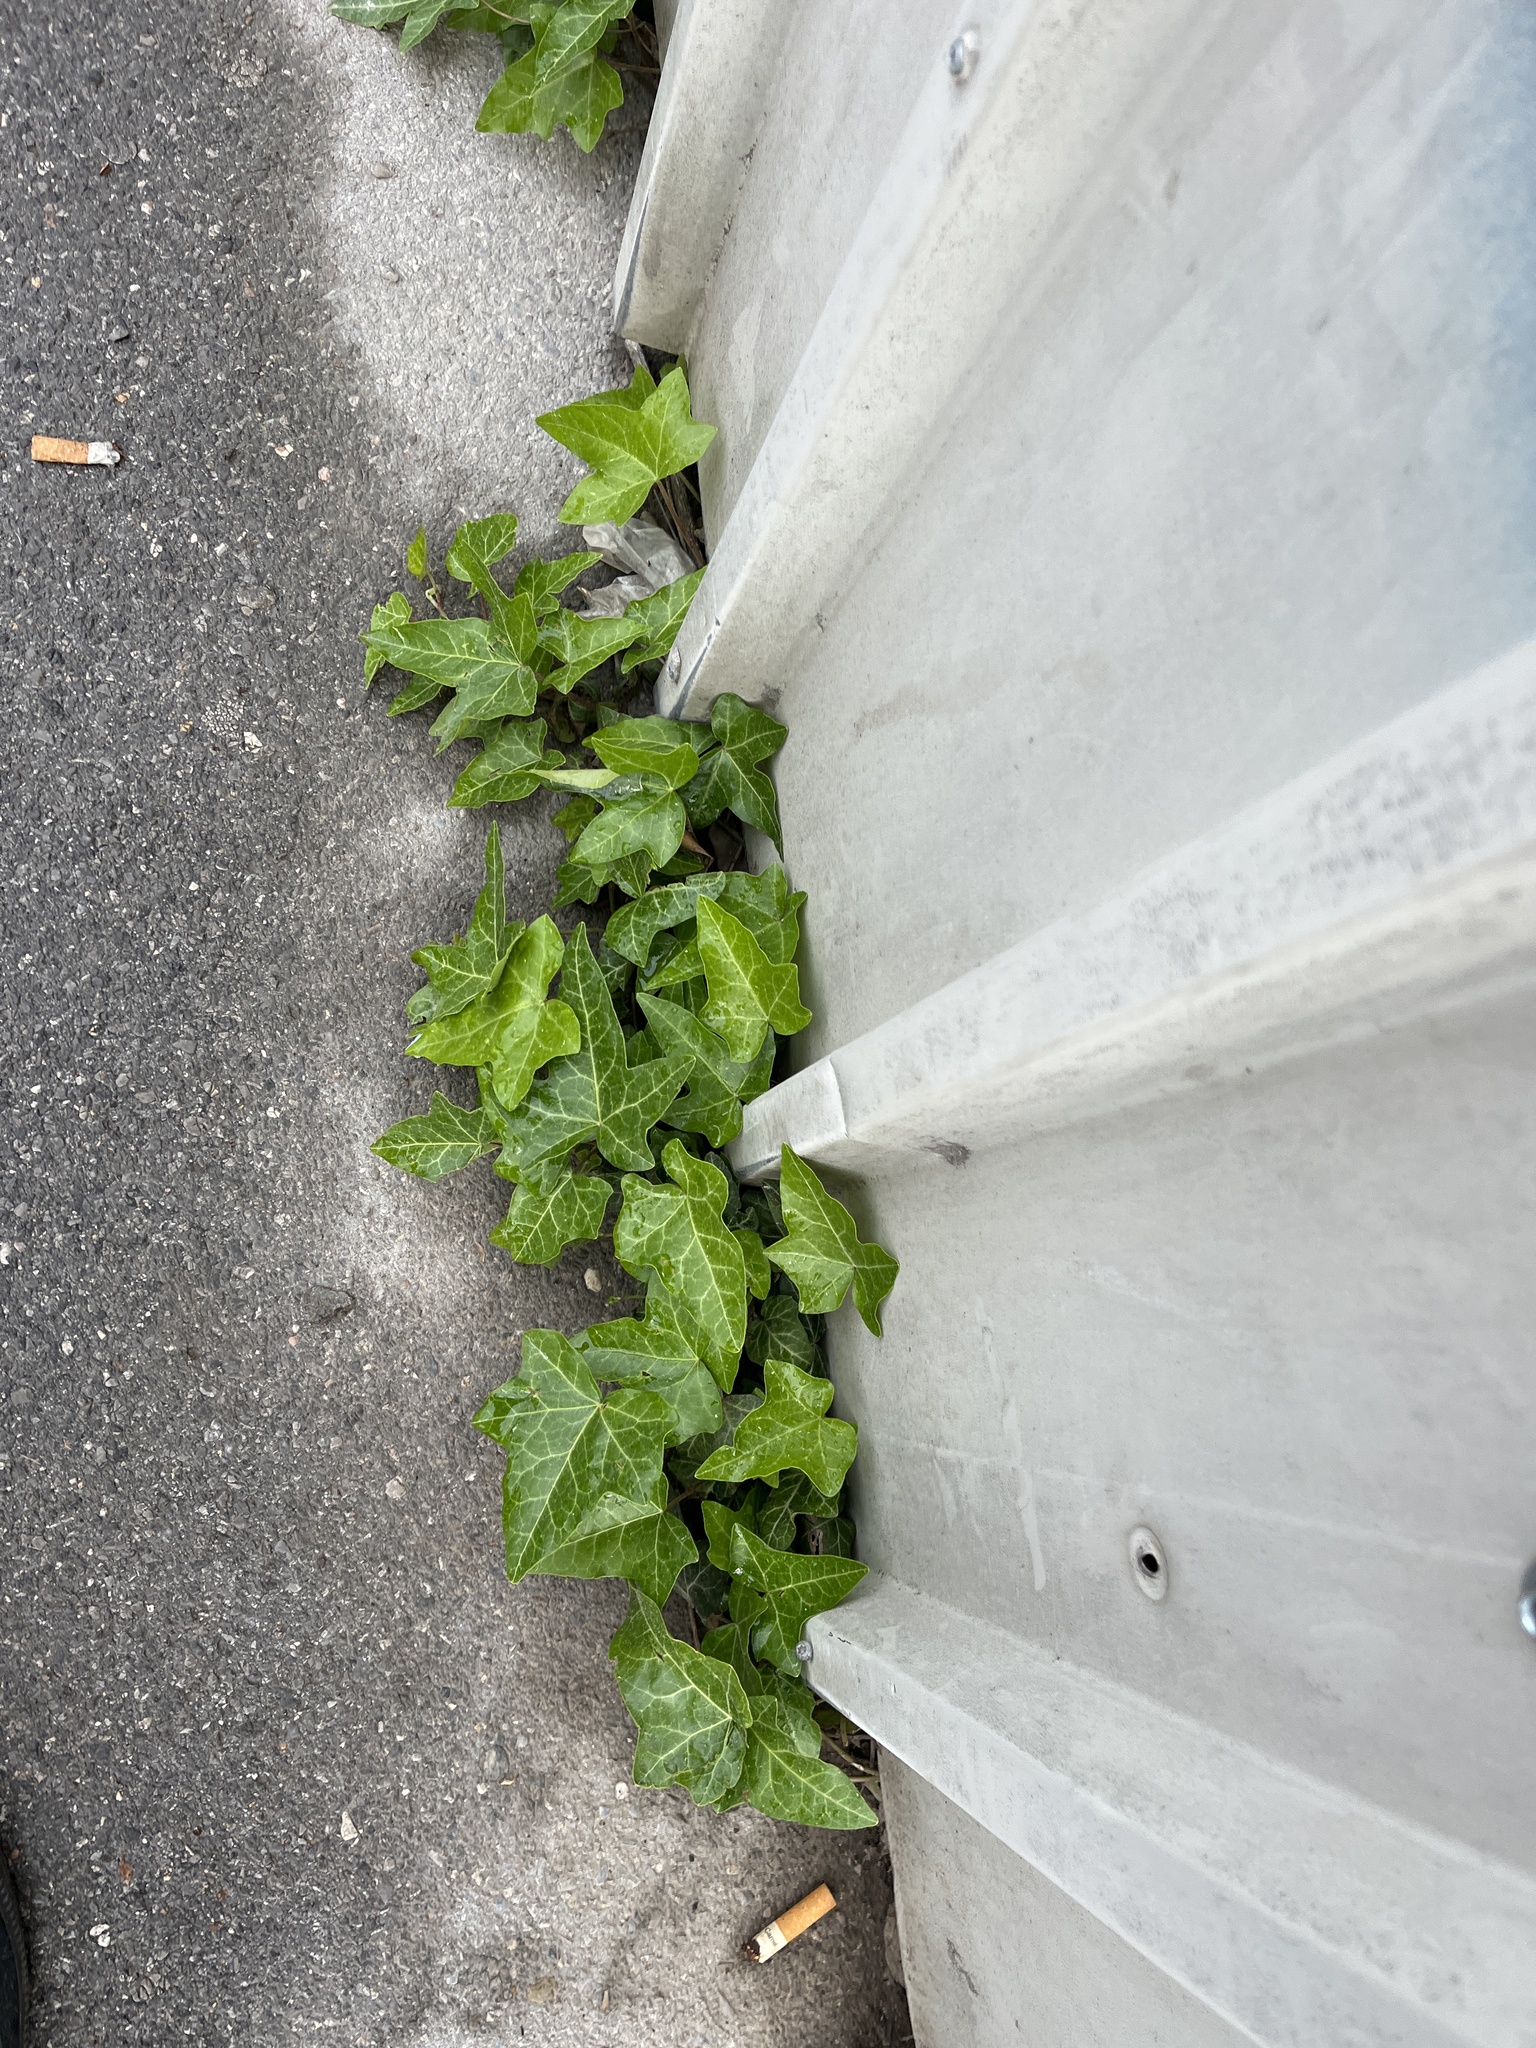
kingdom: Plantae
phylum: Tracheophyta
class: Magnoliopsida
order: Apiales
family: Araliaceae
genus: Hedera
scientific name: Hedera helix
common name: Ivy
